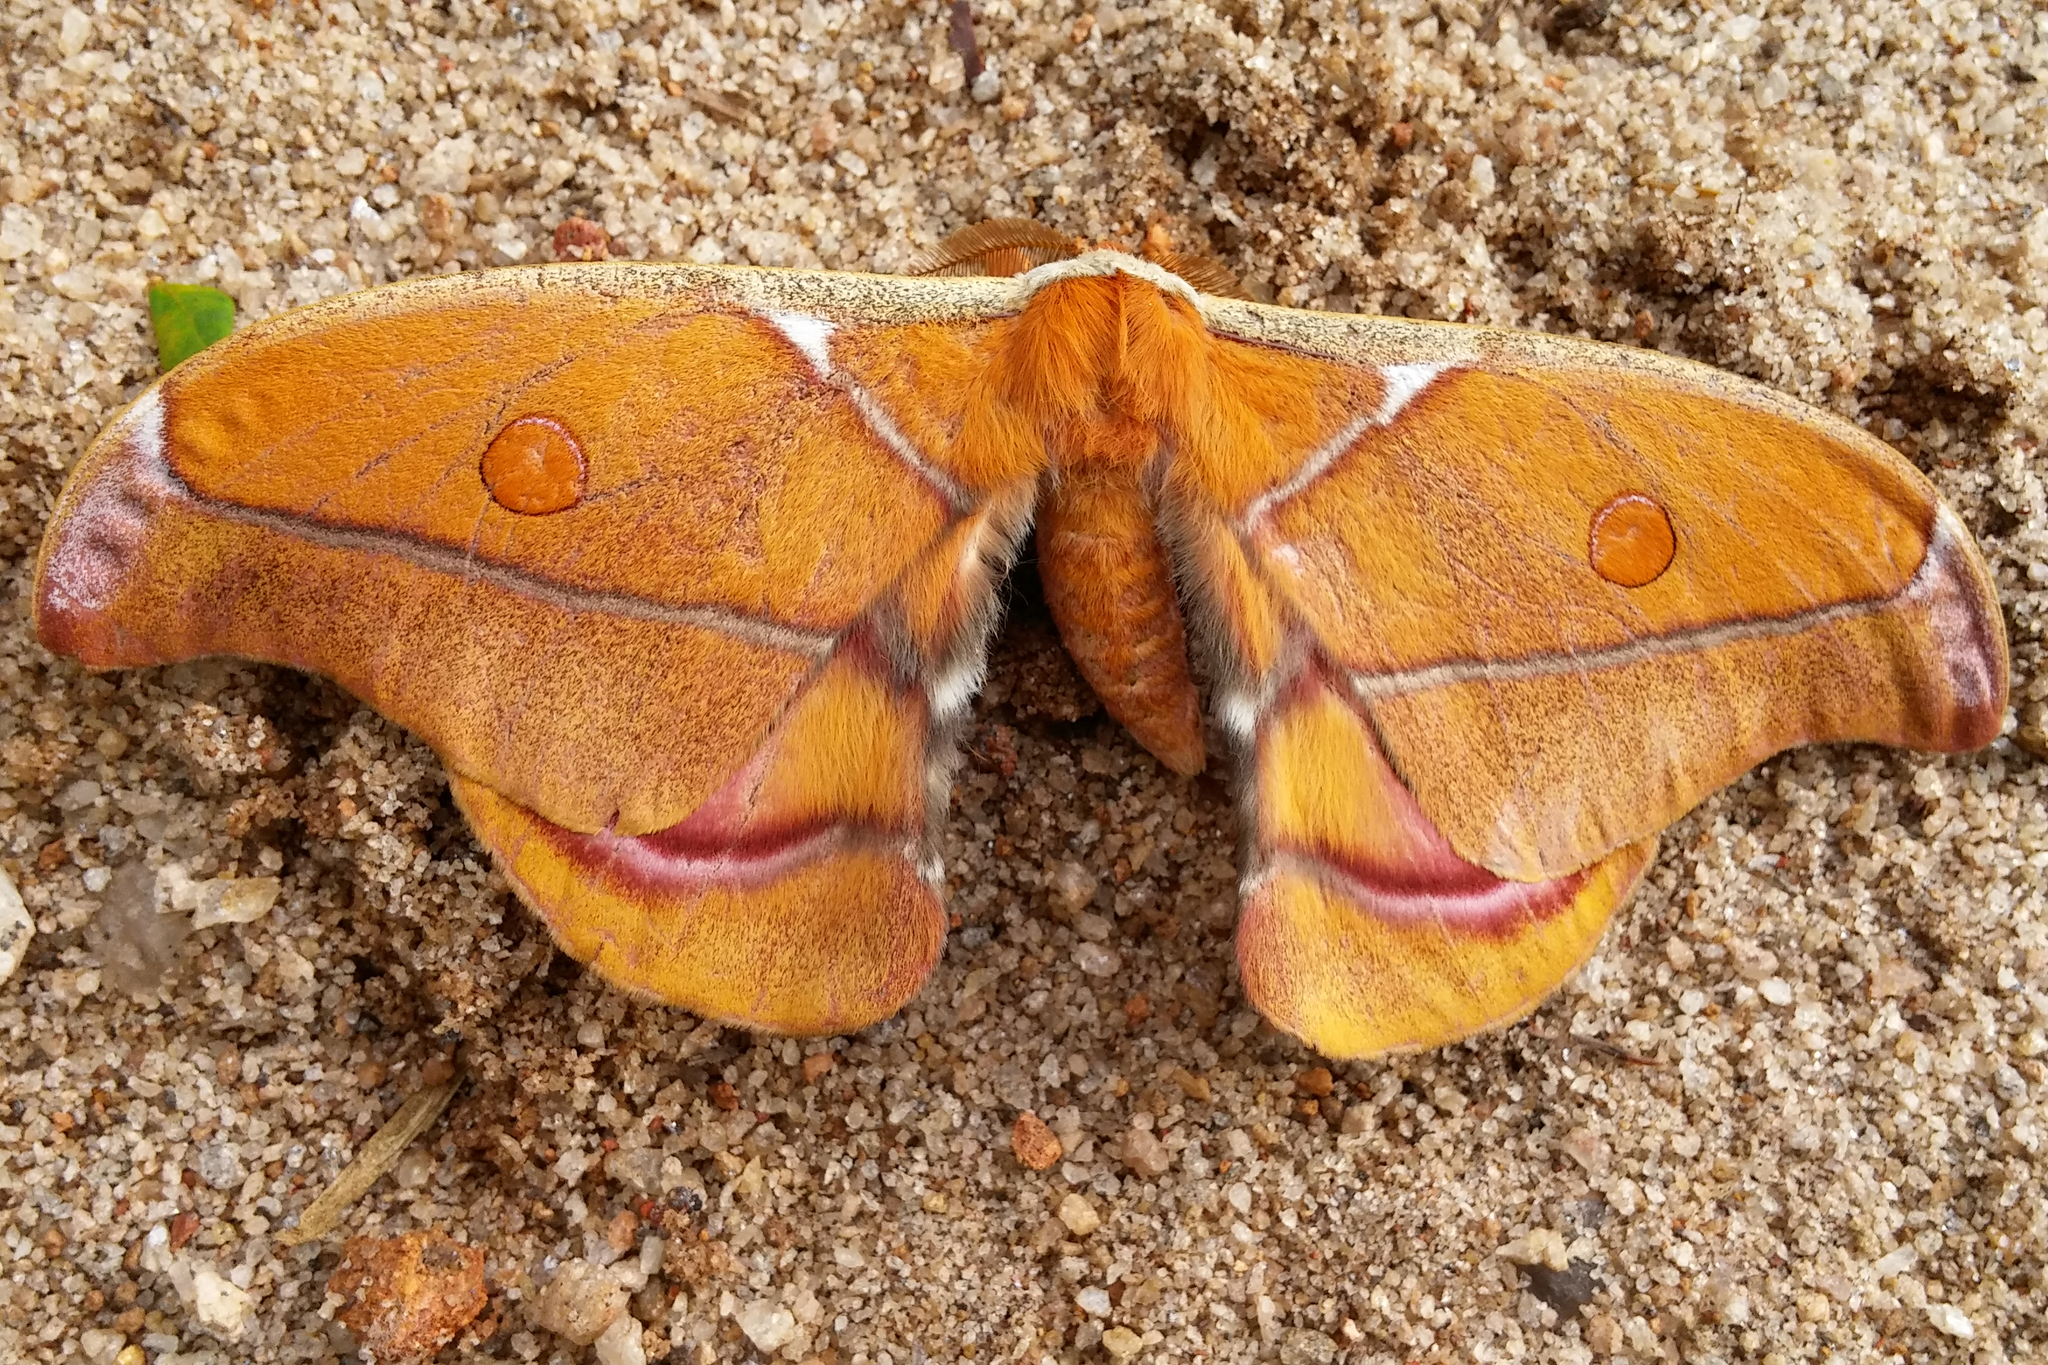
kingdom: Animalia
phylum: Arthropoda
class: Insecta
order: Lepidoptera
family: Saturniidae
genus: Antherina
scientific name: Antherina suraka
